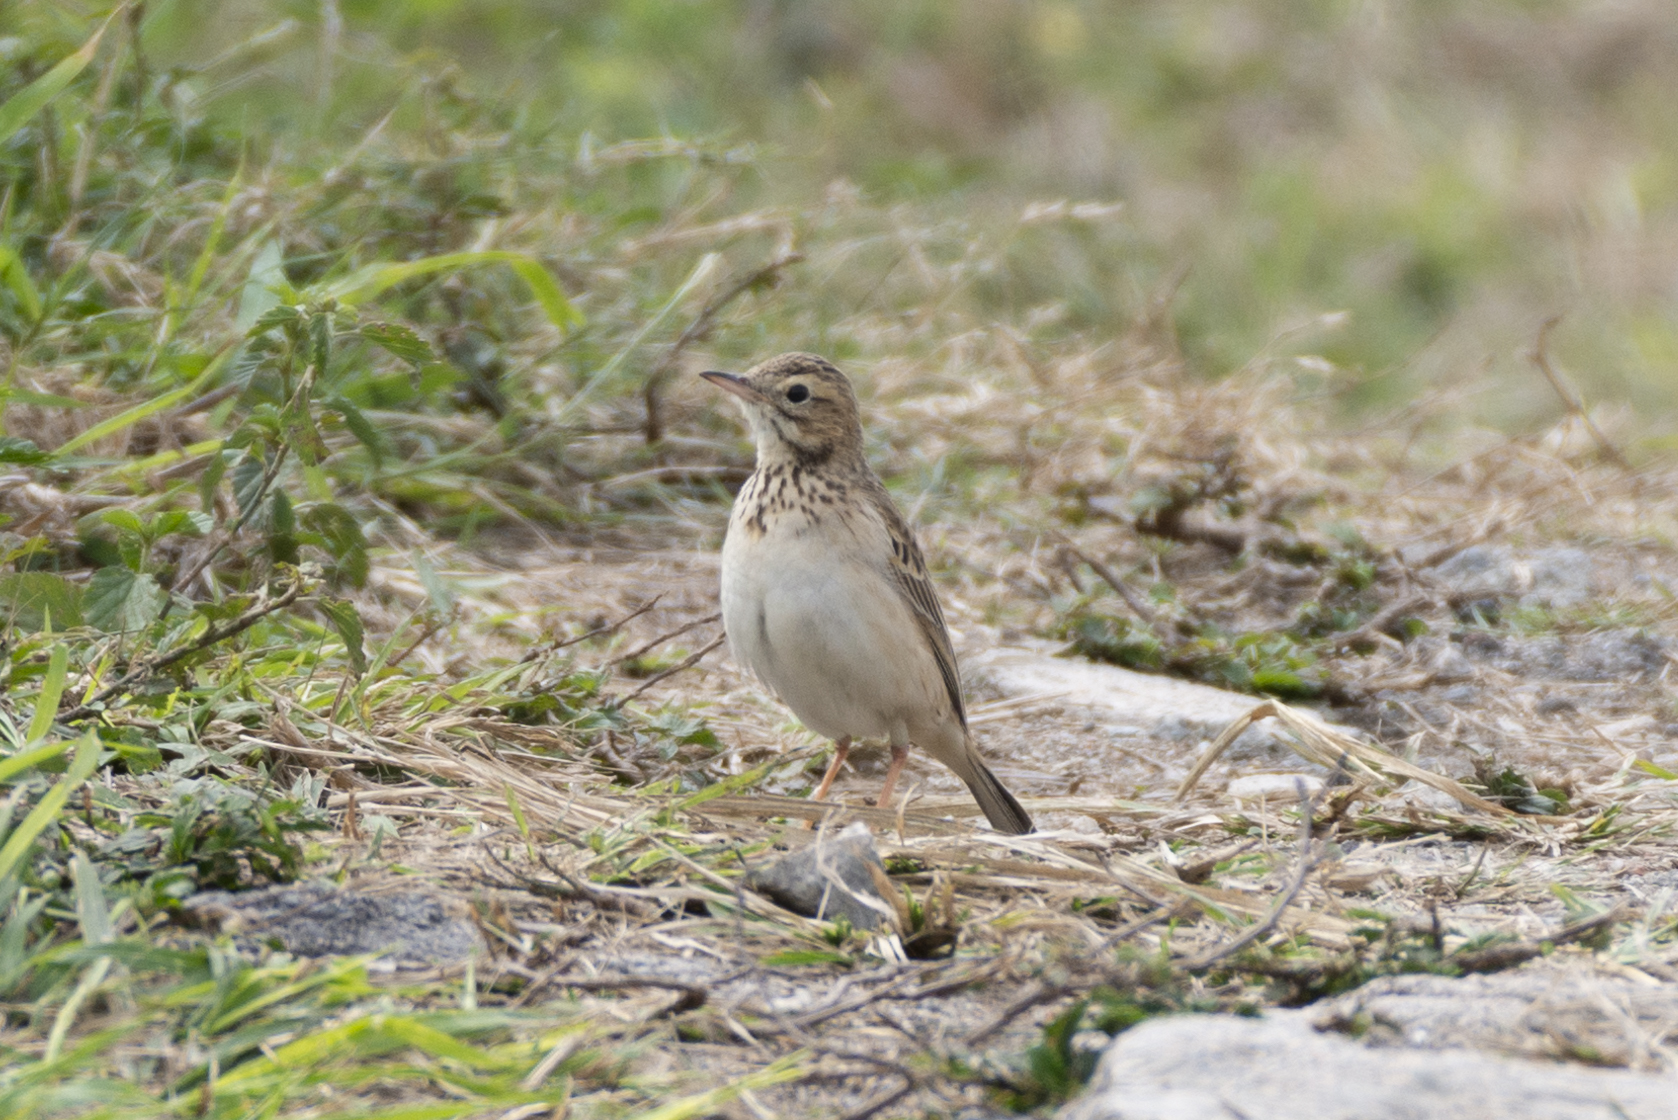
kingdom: Animalia
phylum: Chordata
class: Aves
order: Passeriformes
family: Motacillidae
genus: Anthus
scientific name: Anthus richardi
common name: Richard's pipit
